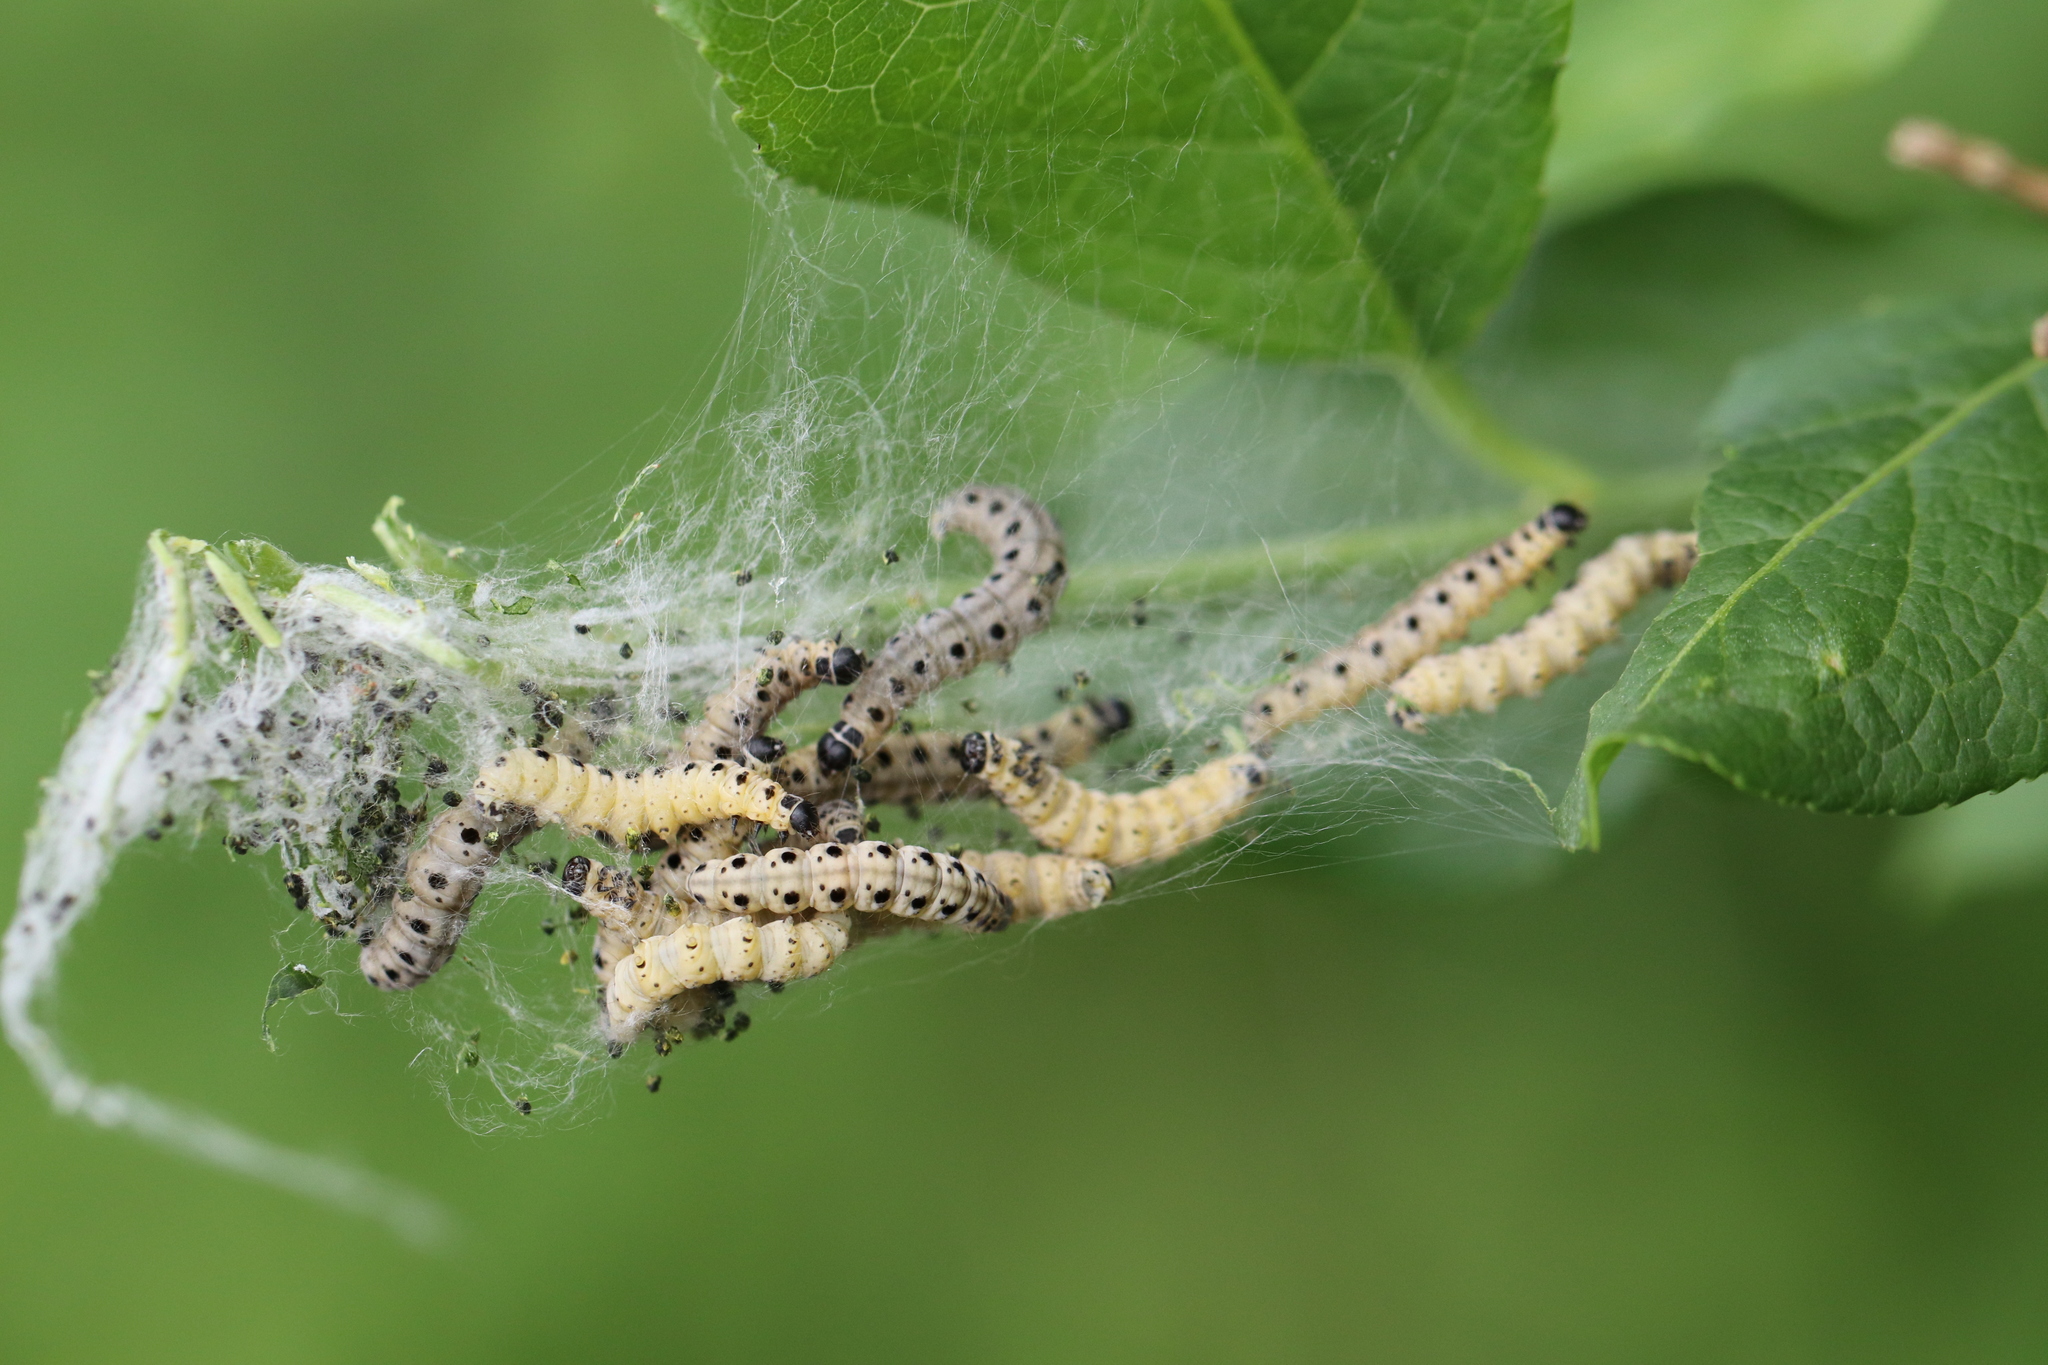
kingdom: Animalia
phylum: Arthropoda
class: Insecta
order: Lepidoptera
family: Yponomeutidae
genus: Yponomeuta
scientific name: Yponomeuta cagnagellus
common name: Spindle ermine
